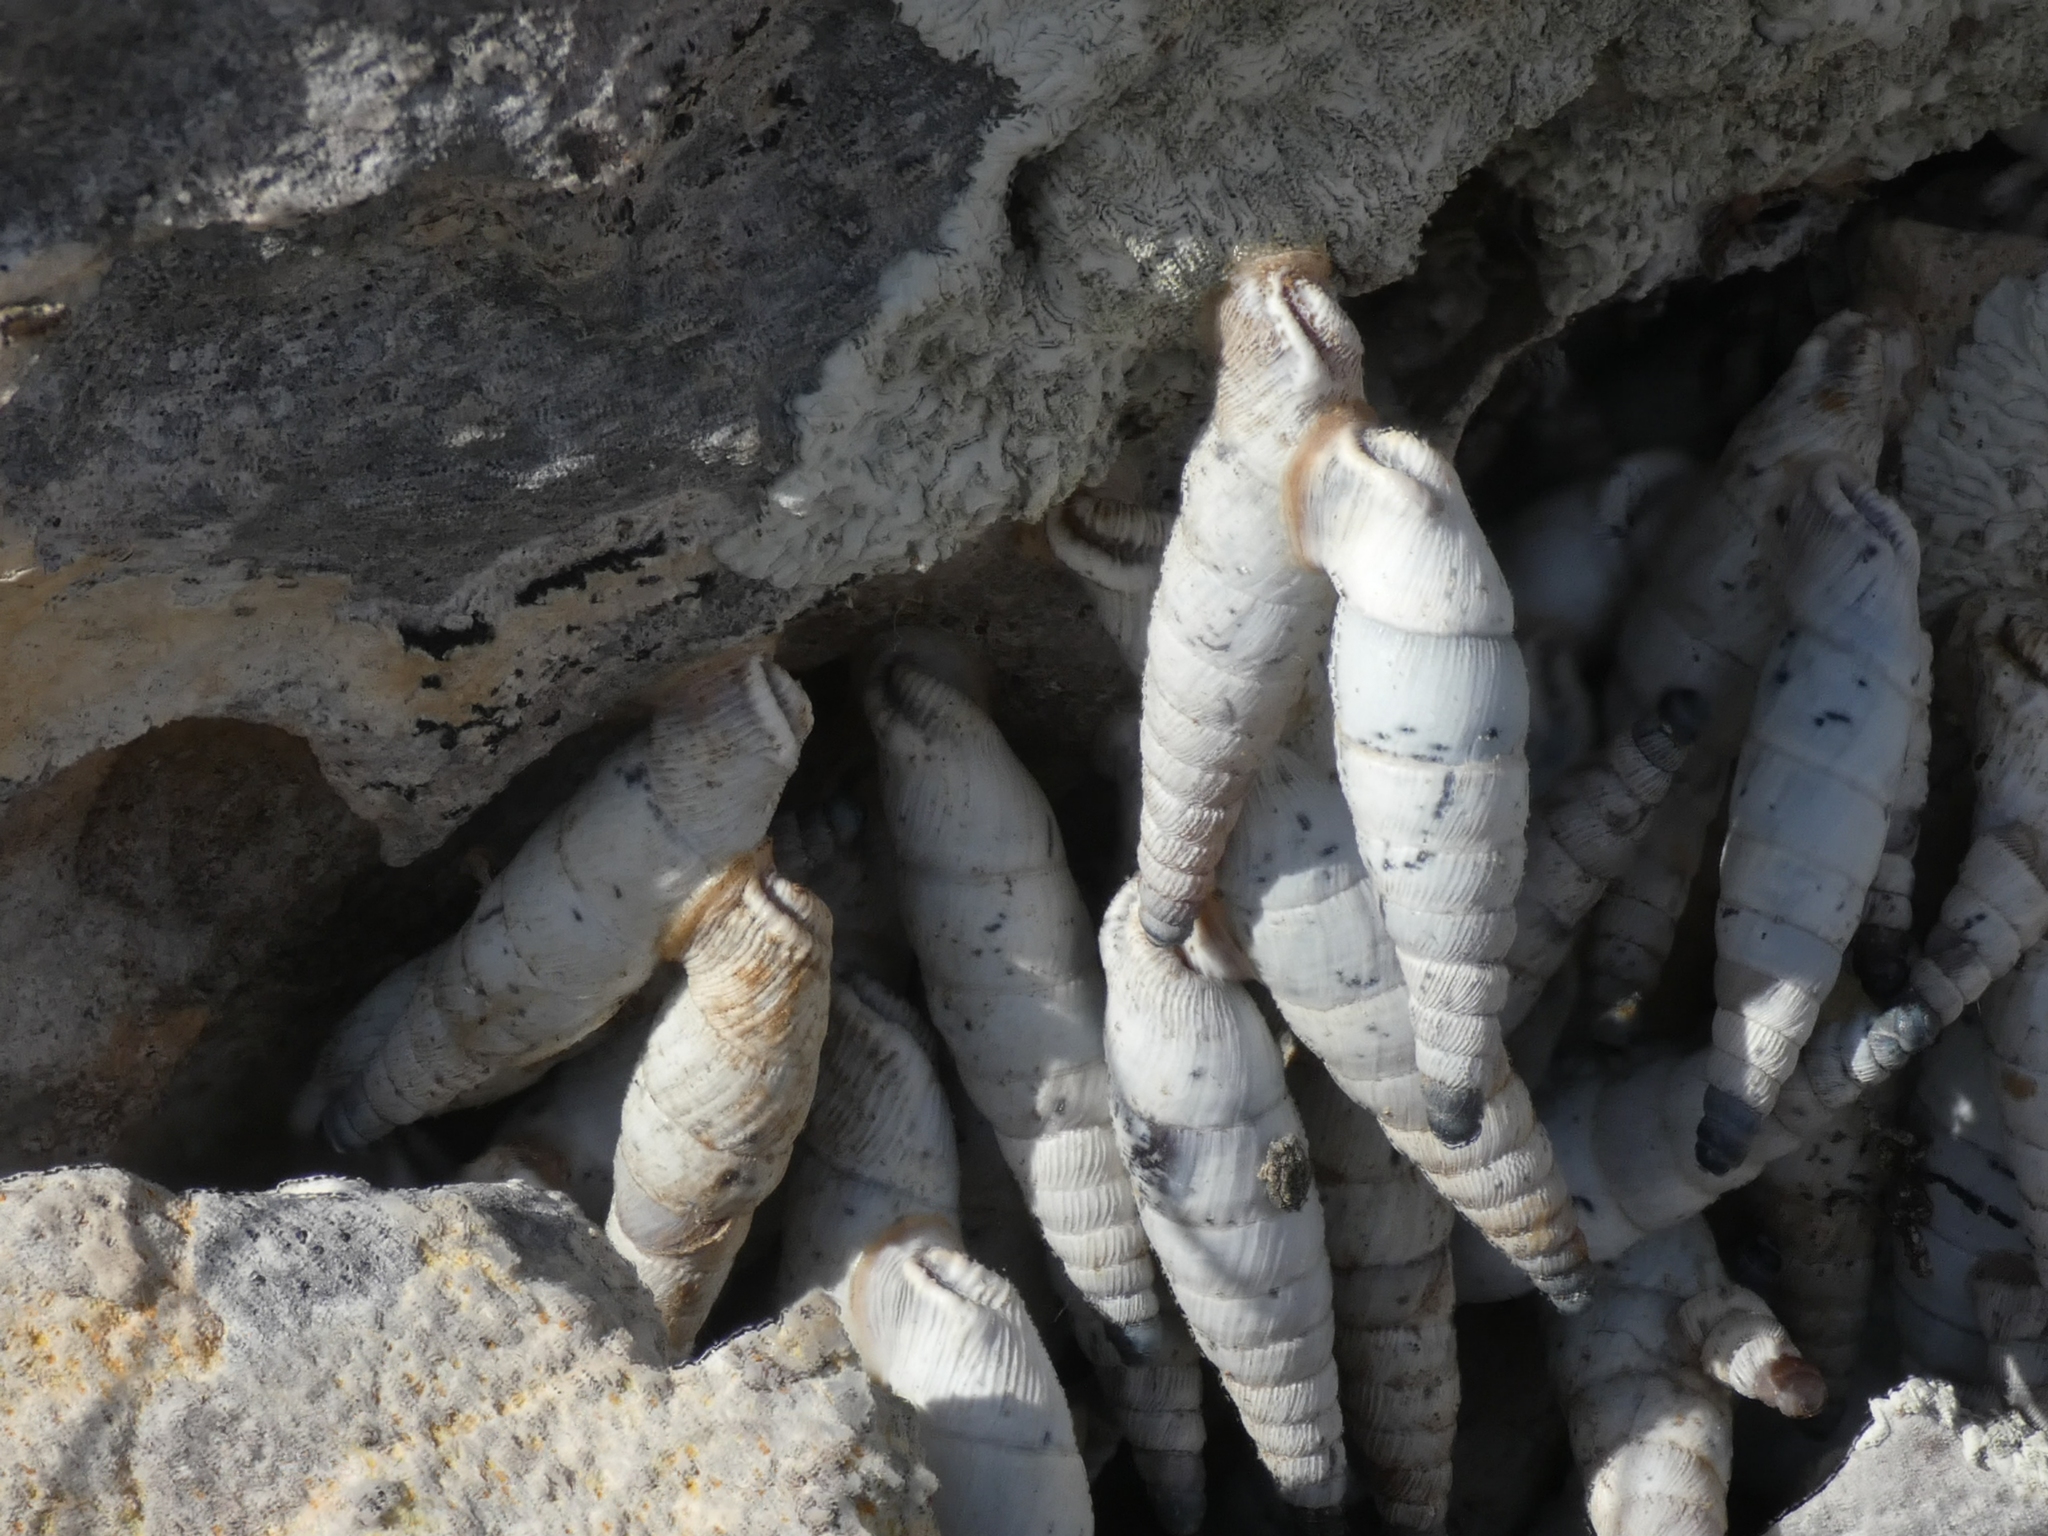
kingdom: Animalia
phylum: Mollusca
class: Gastropoda
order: Stylommatophora
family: Clausiliidae
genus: Albinaria
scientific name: Albinaria caerulea
